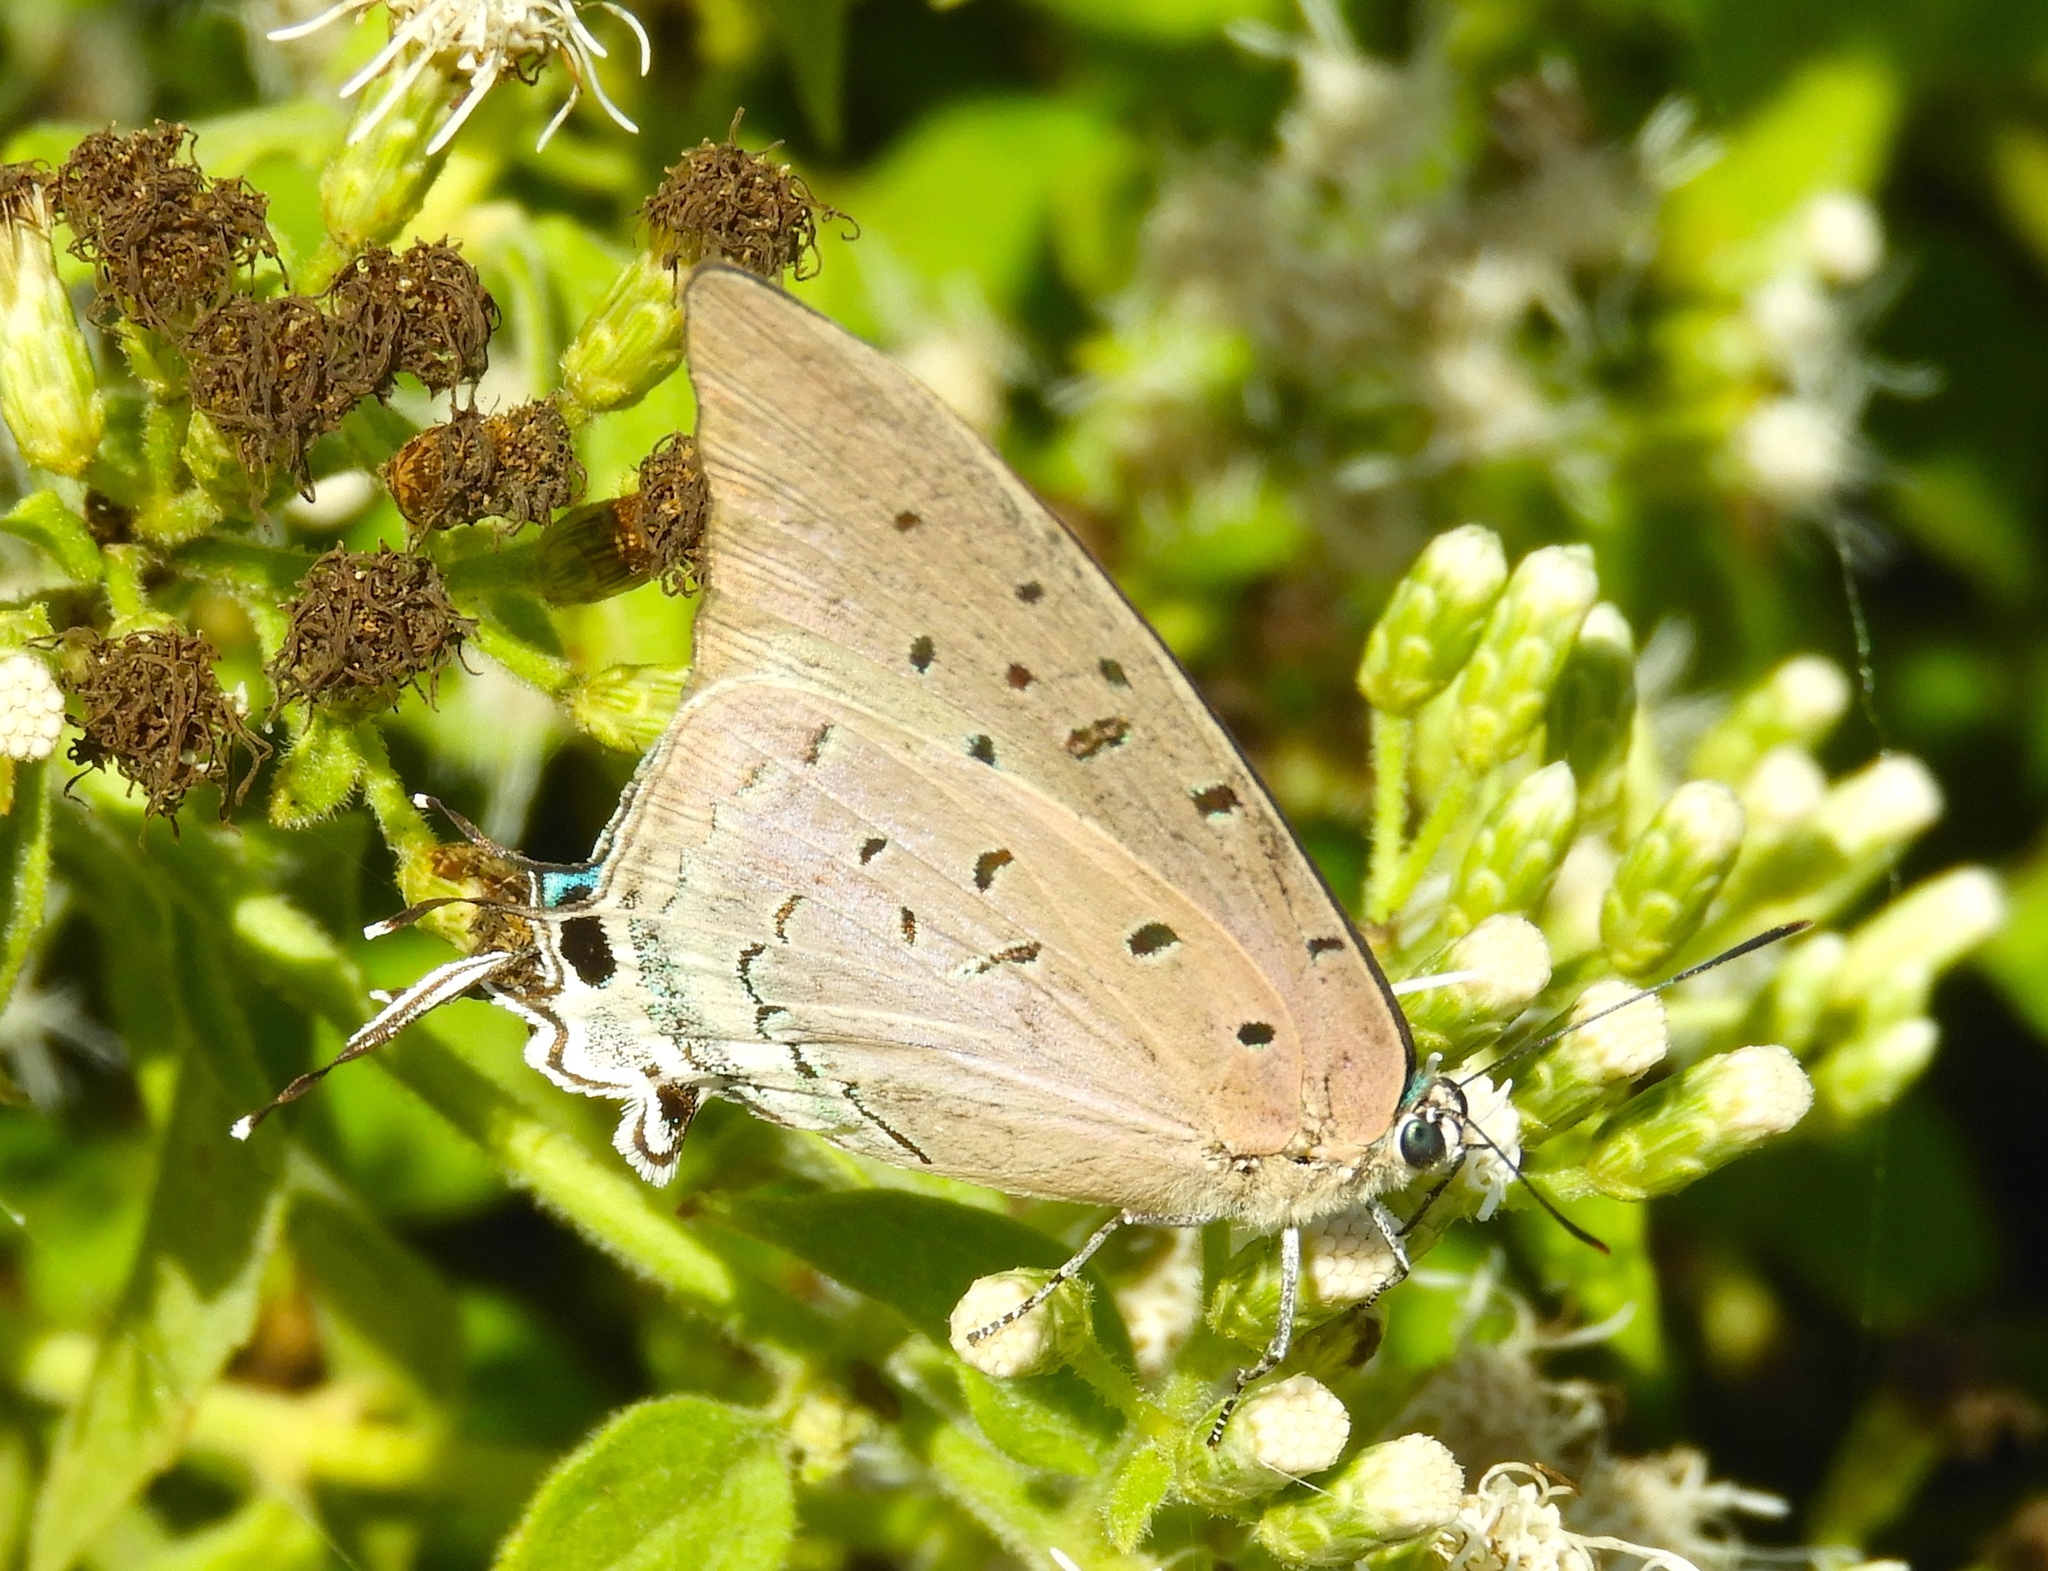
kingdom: Animalia
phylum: Arthropoda
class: Insecta
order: Lepidoptera
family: Lycaenidae
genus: Pseudolycaena
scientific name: Pseudolycaena damo
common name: Sky-blue hairstreak
